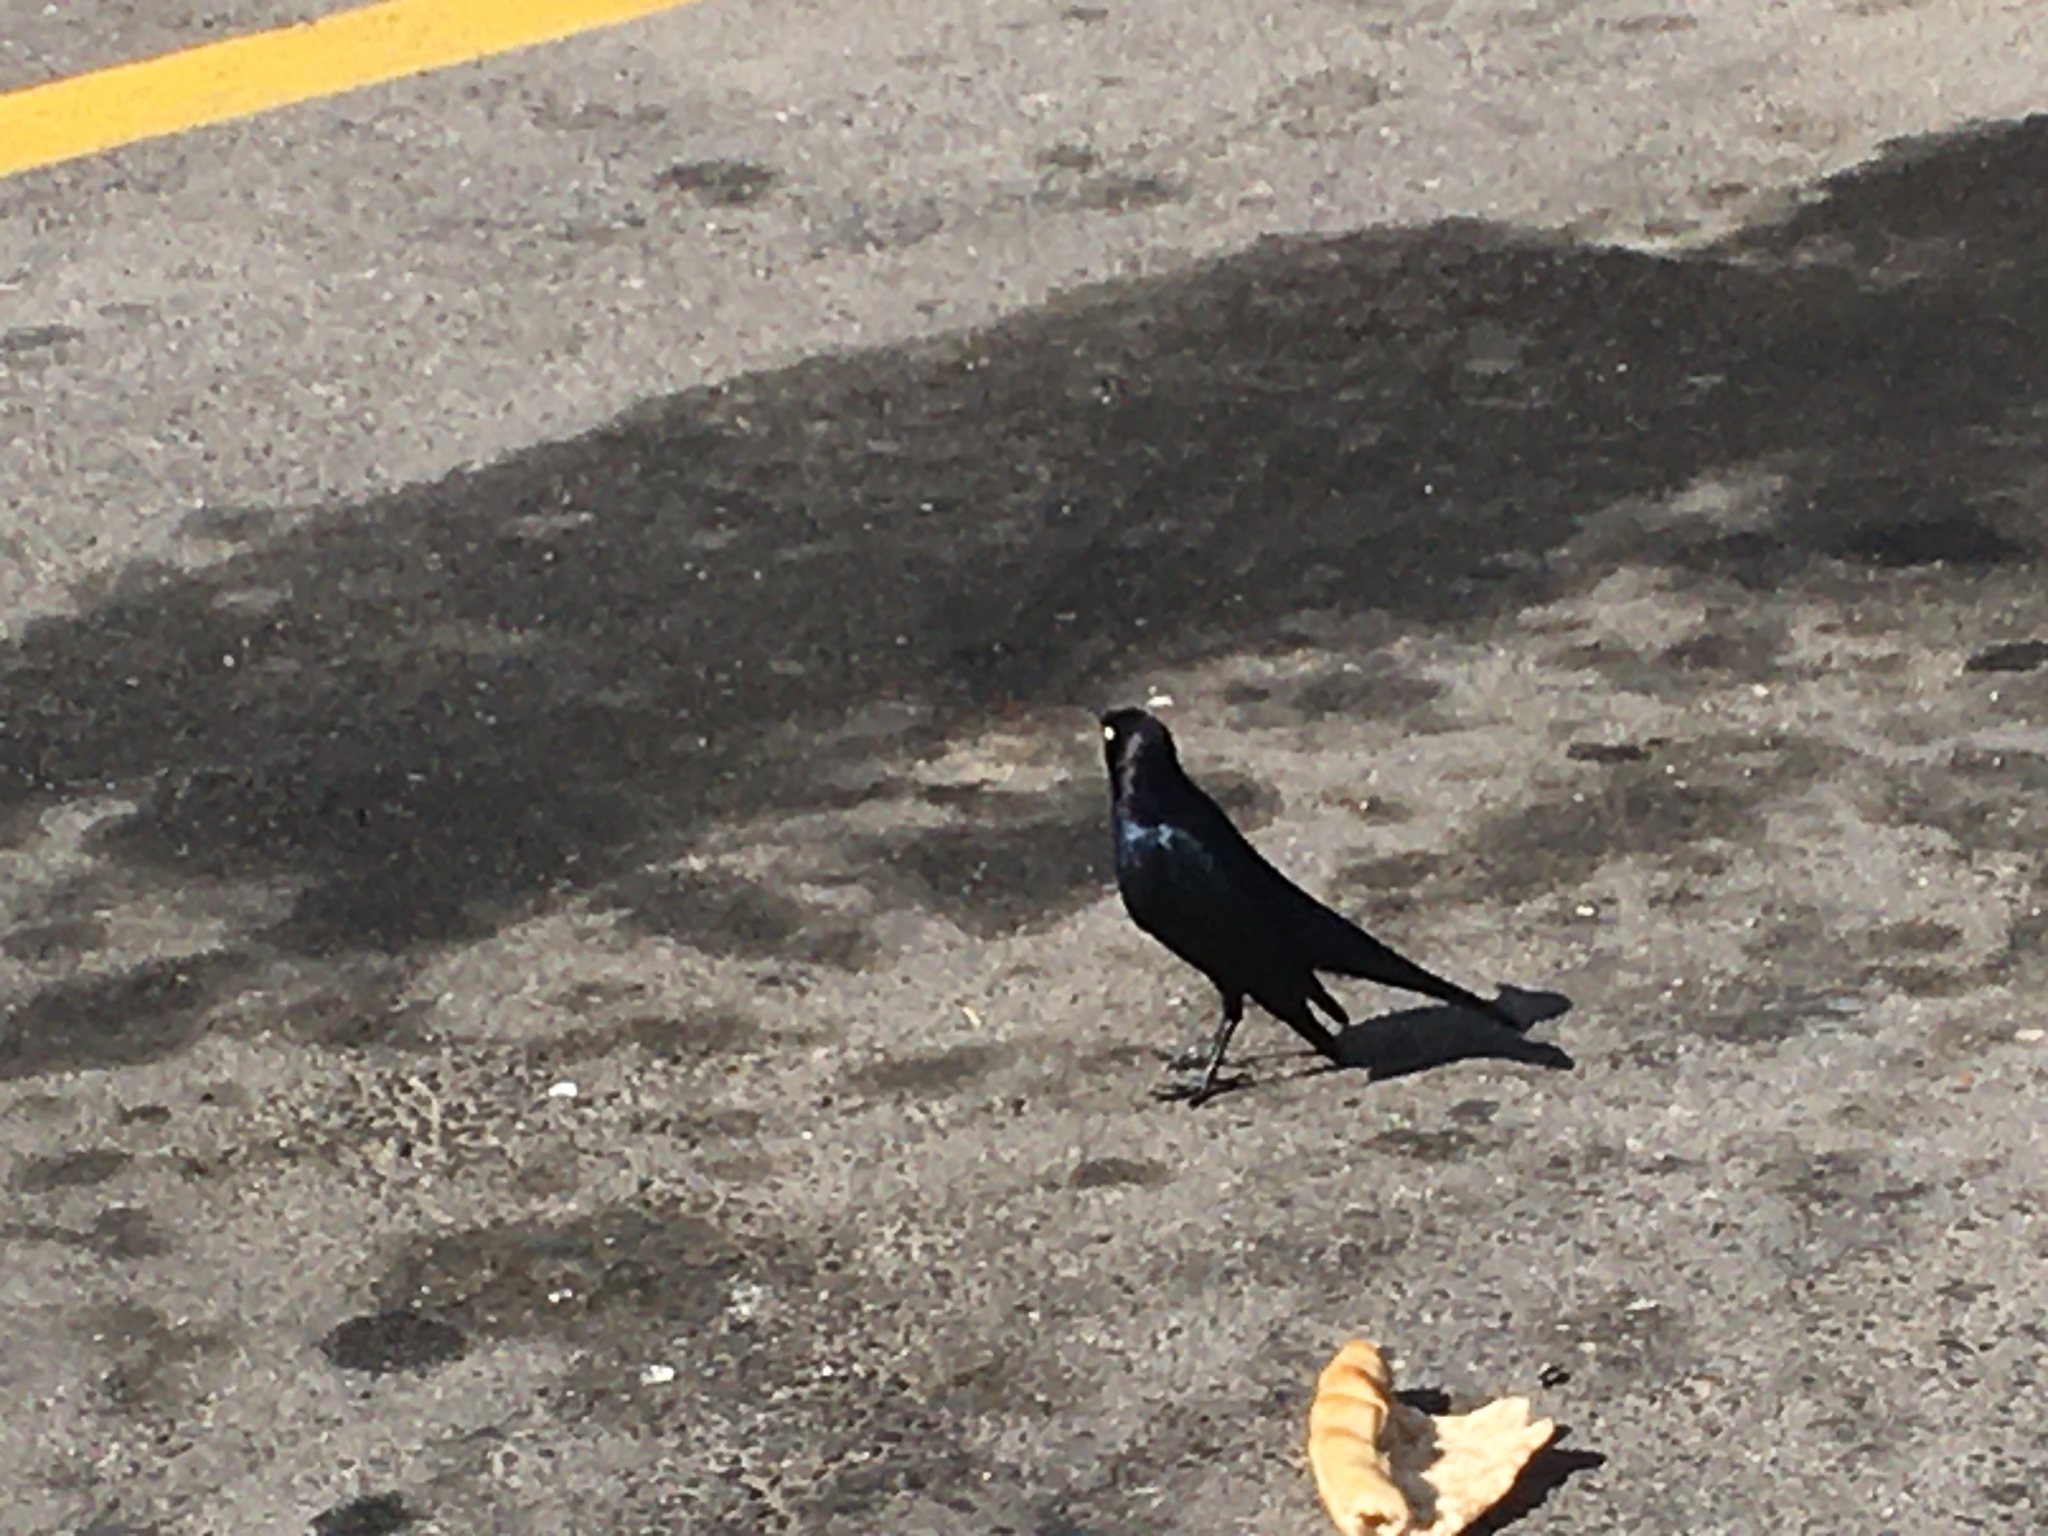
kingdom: Animalia
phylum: Chordata
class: Aves
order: Passeriformes
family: Icteridae
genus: Euphagus
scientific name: Euphagus cyanocephalus
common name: Brewer's blackbird
